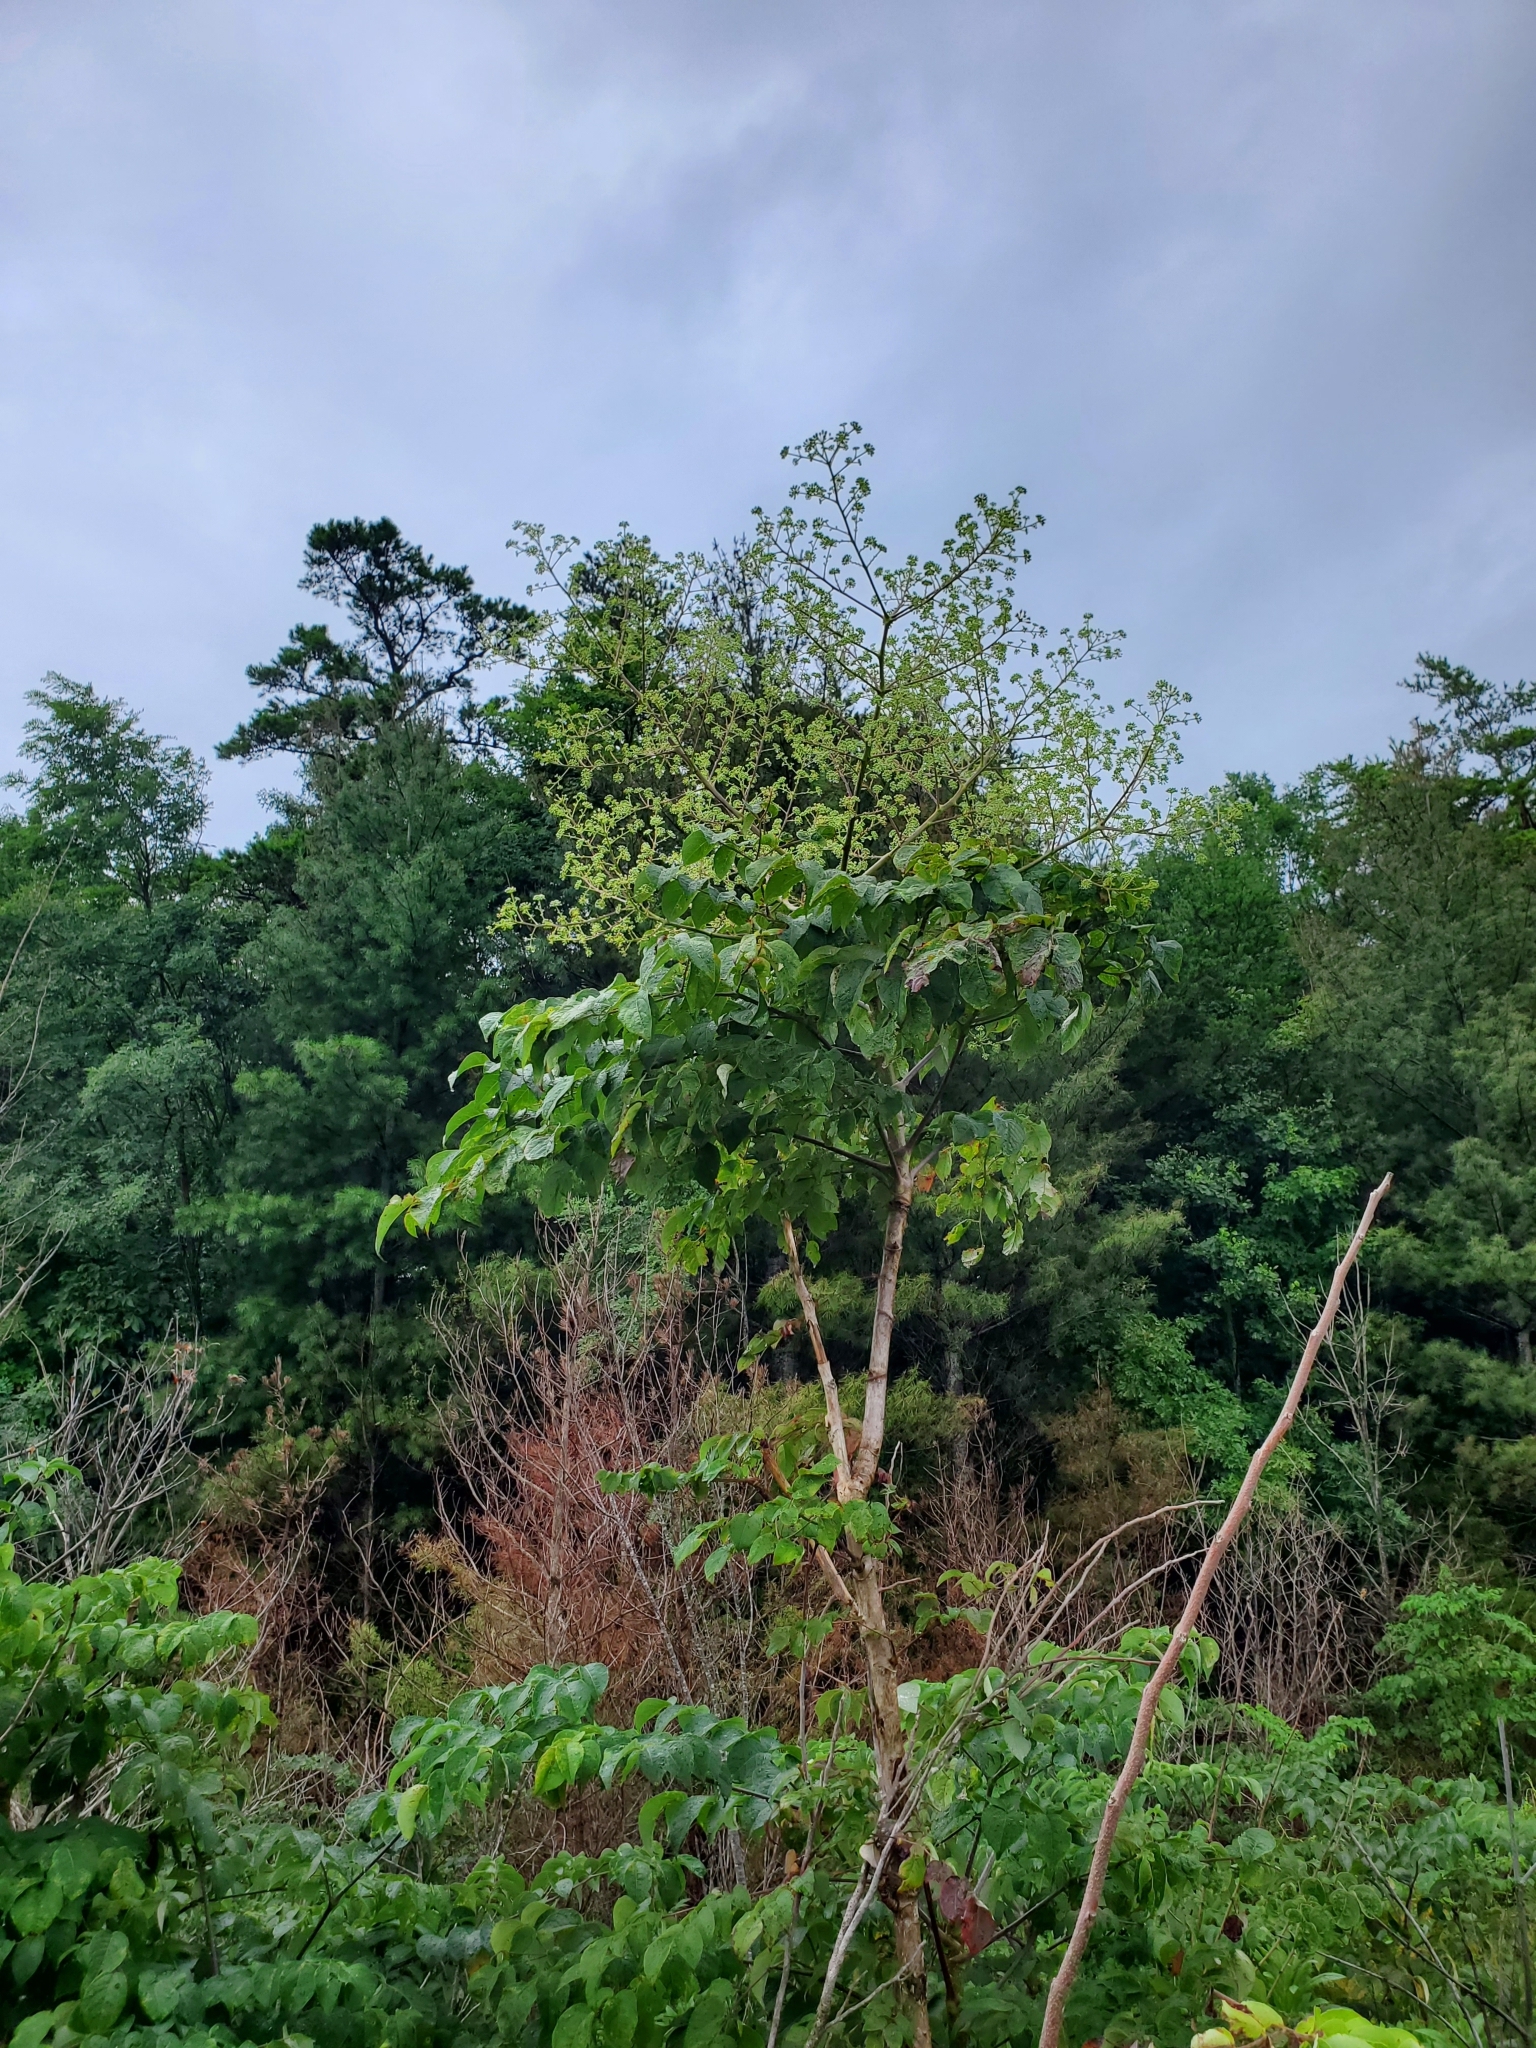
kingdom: Plantae
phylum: Tracheophyta
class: Magnoliopsida
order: Apiales
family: Araliaceae
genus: Aralia
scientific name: Aralia spinosa
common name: Hercules'-club
